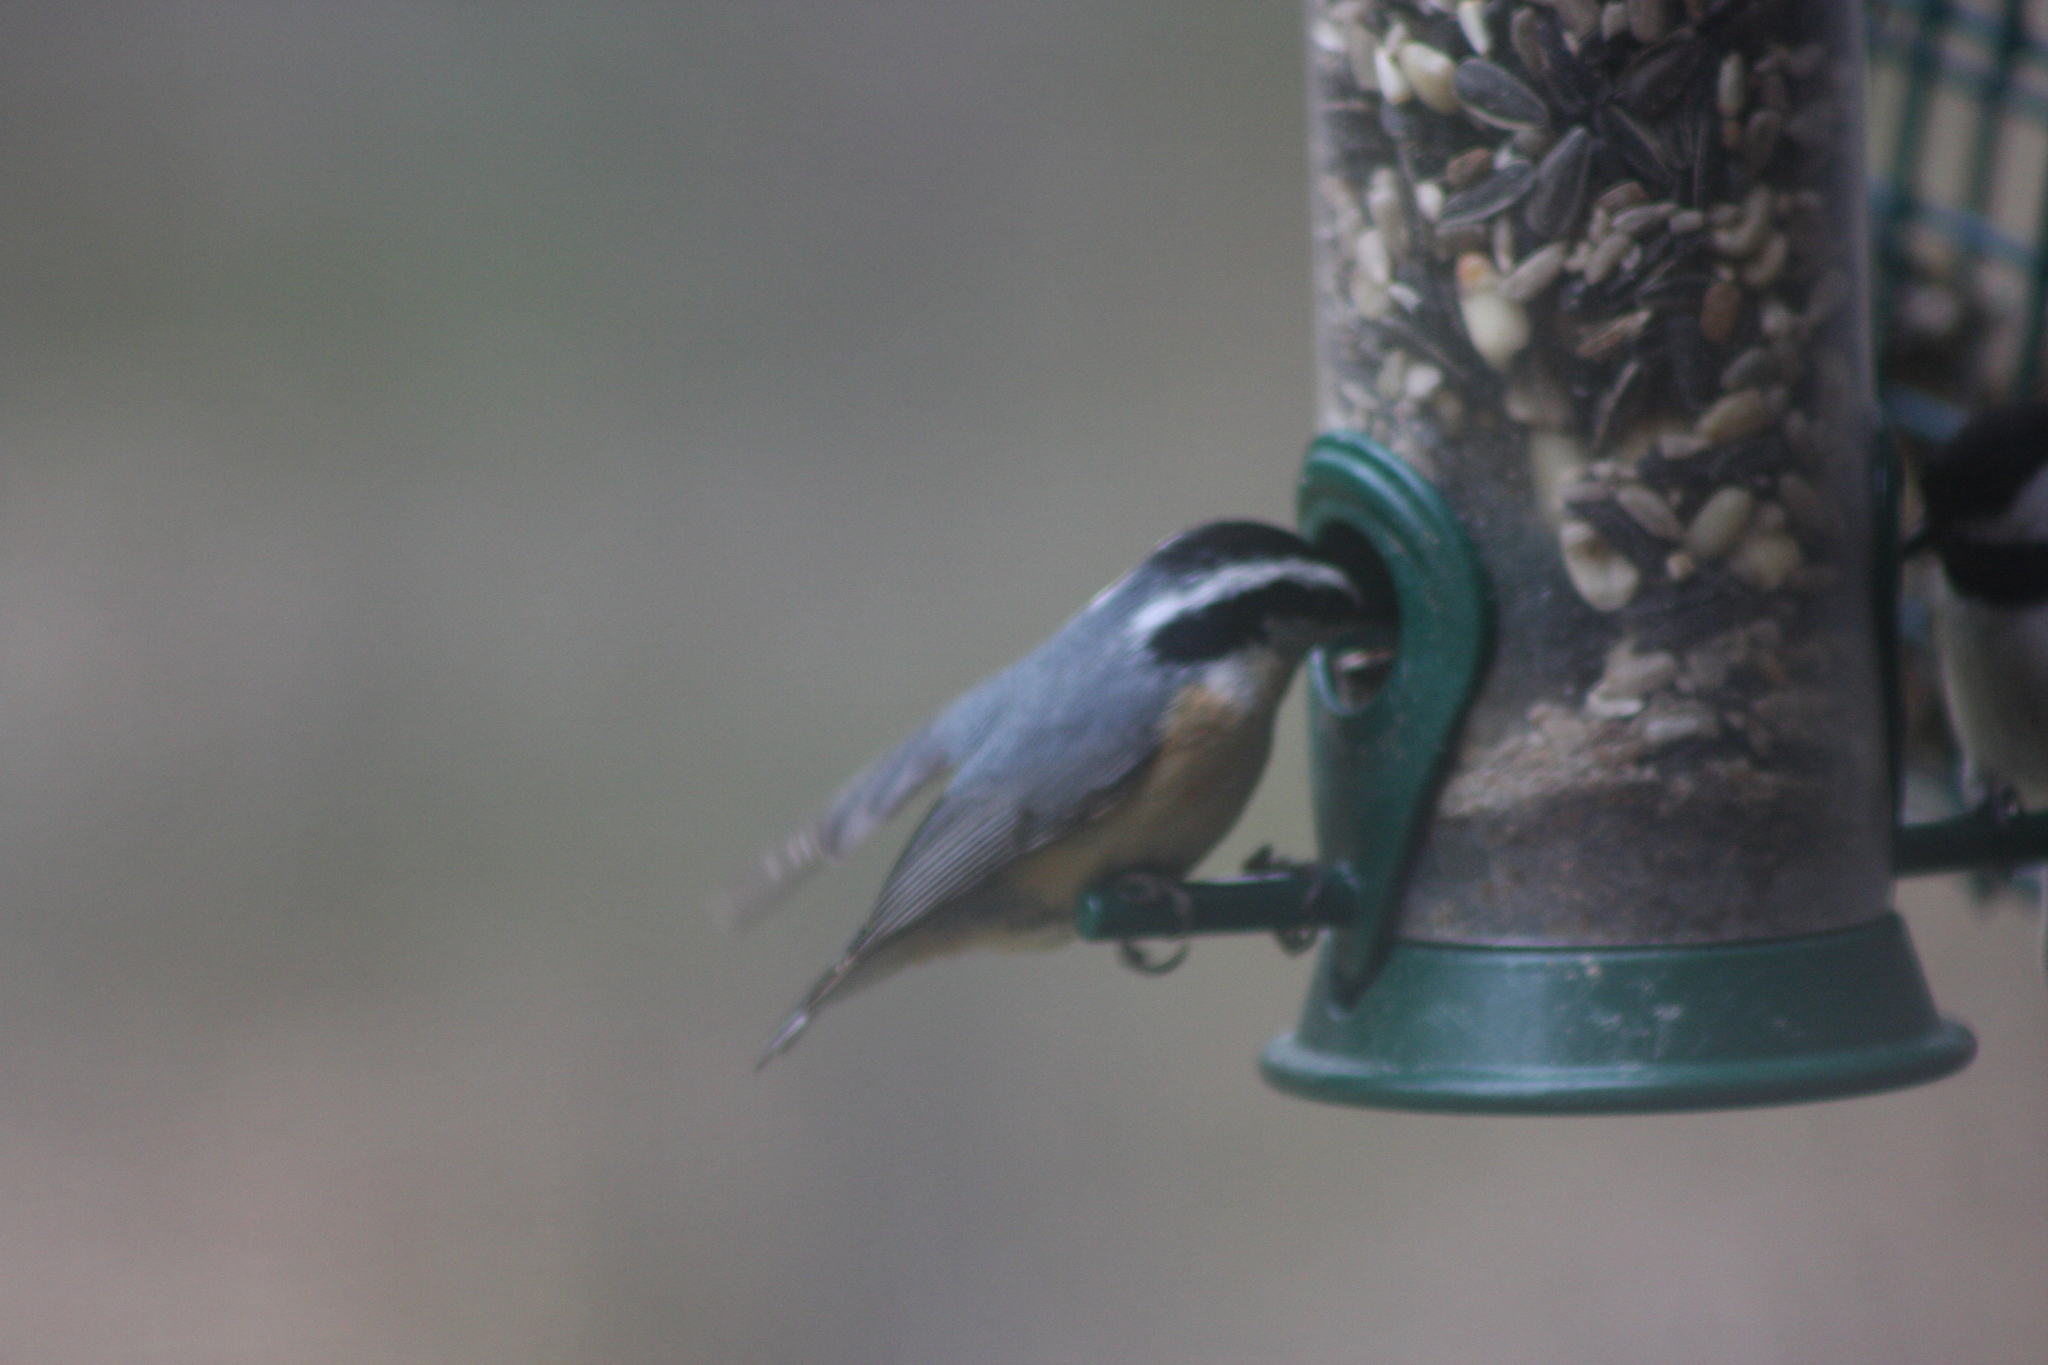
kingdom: Animalia
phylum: Chordata
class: Aves
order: Passeriformes
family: Sittidae
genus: Sitta
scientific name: Sitta canadensis
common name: Red-breasted nuthatch
